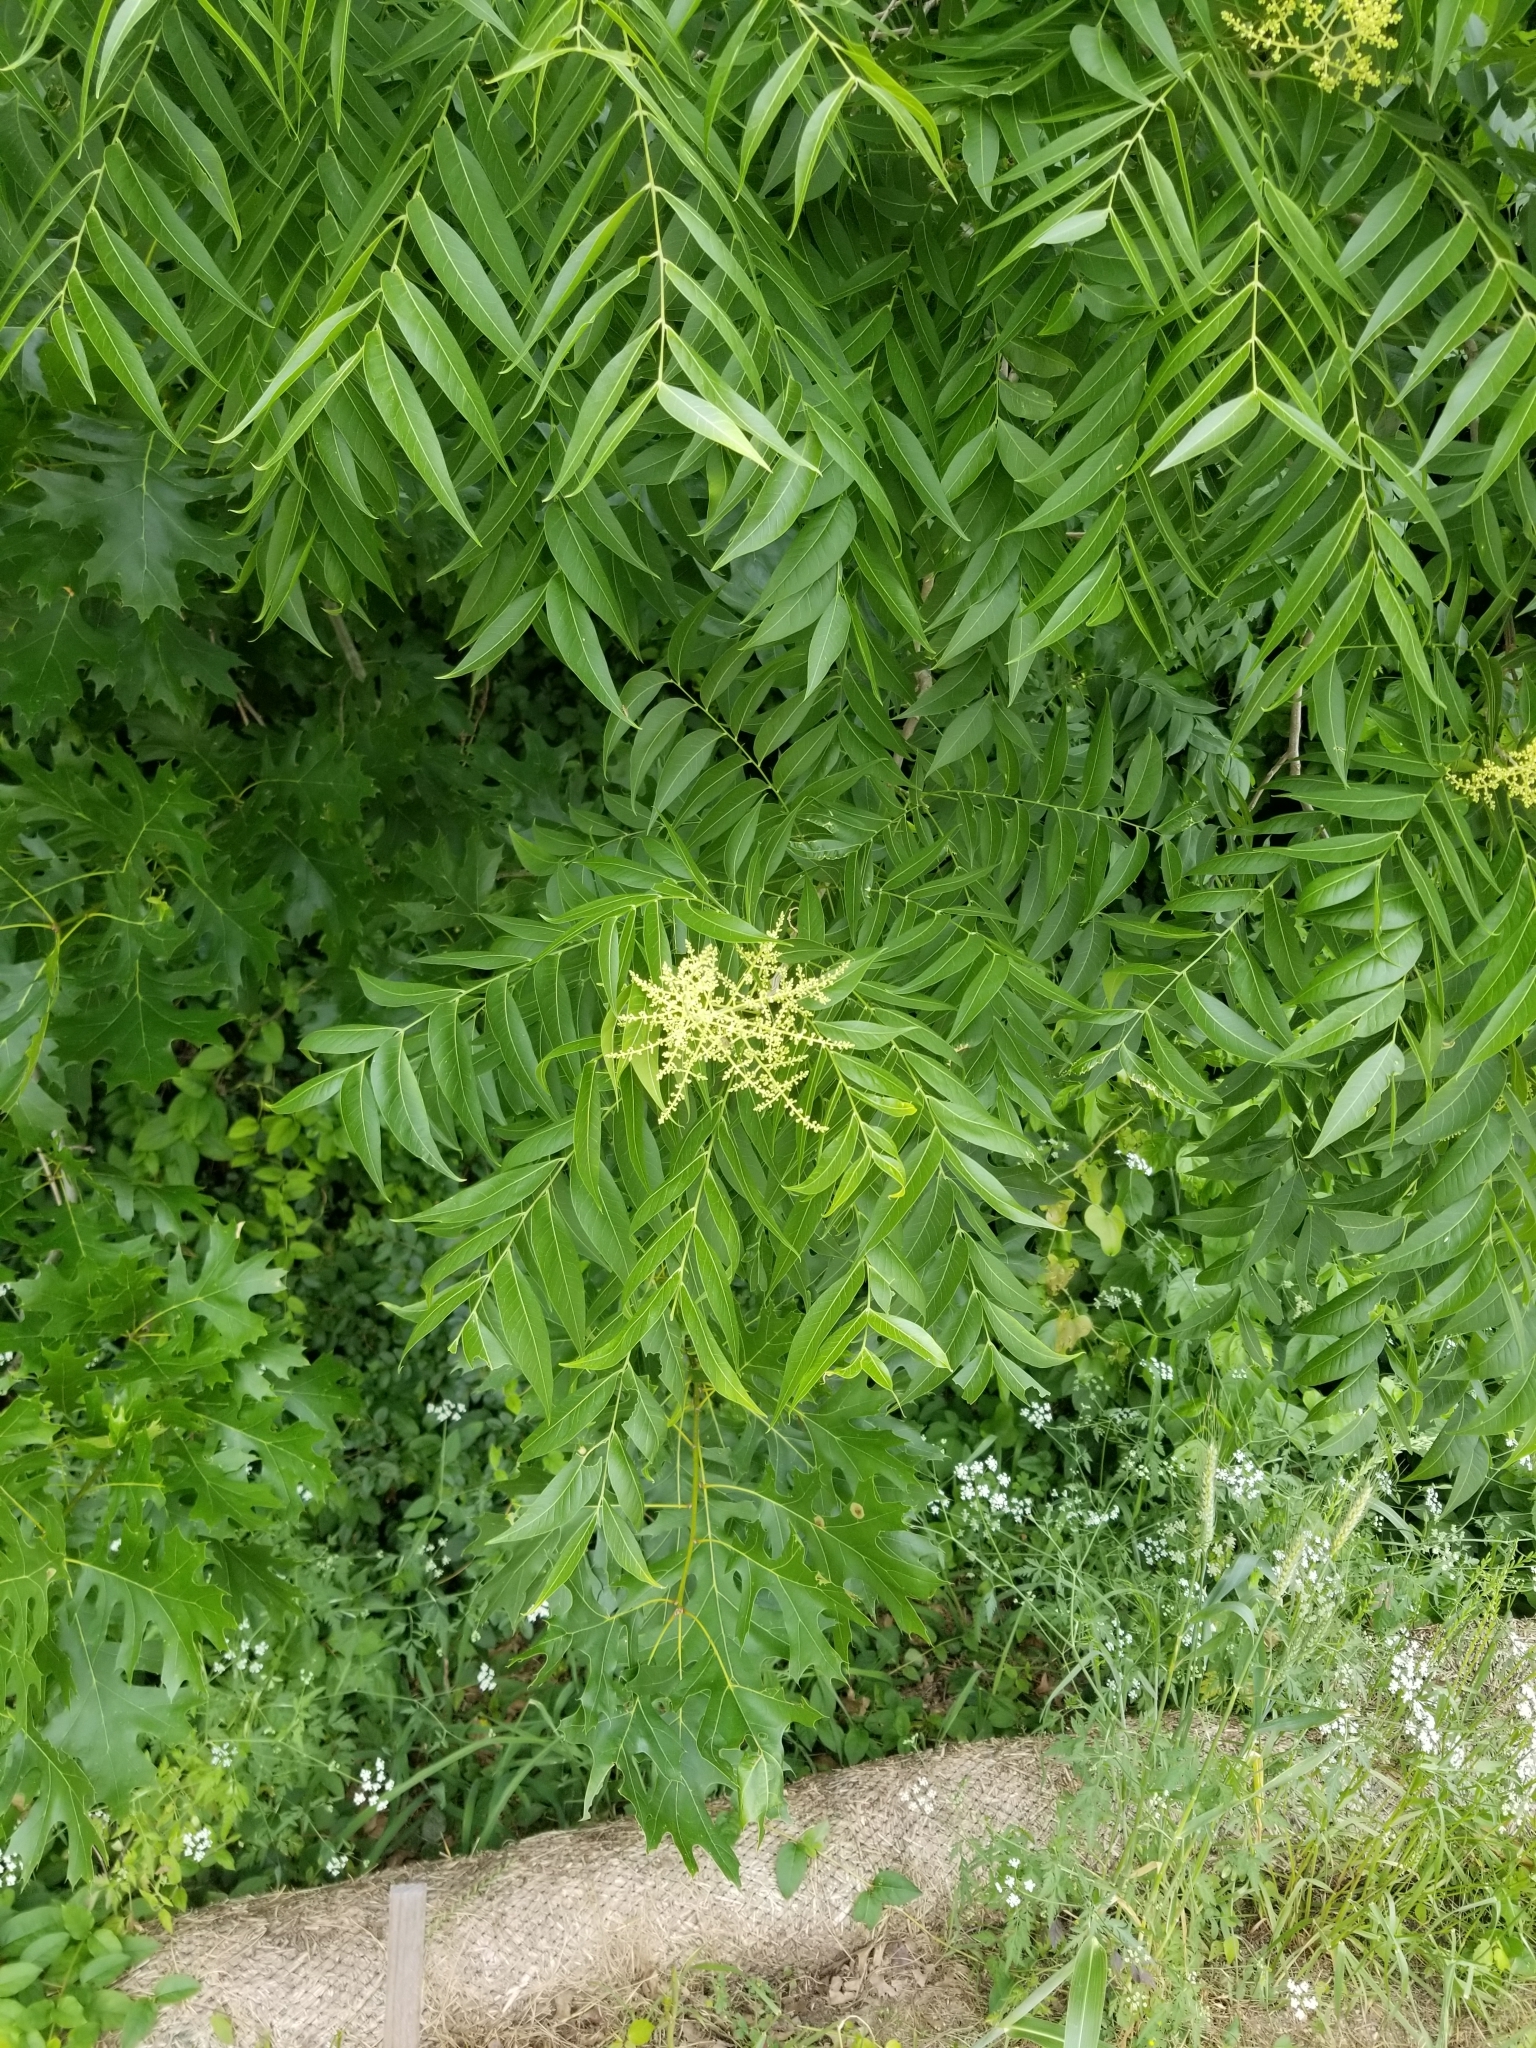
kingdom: Plantae
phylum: Tracheophyta
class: Magnoliopsida
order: Sapindales
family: Sapindaceae
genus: Sapindus
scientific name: Sapindus drummondii
